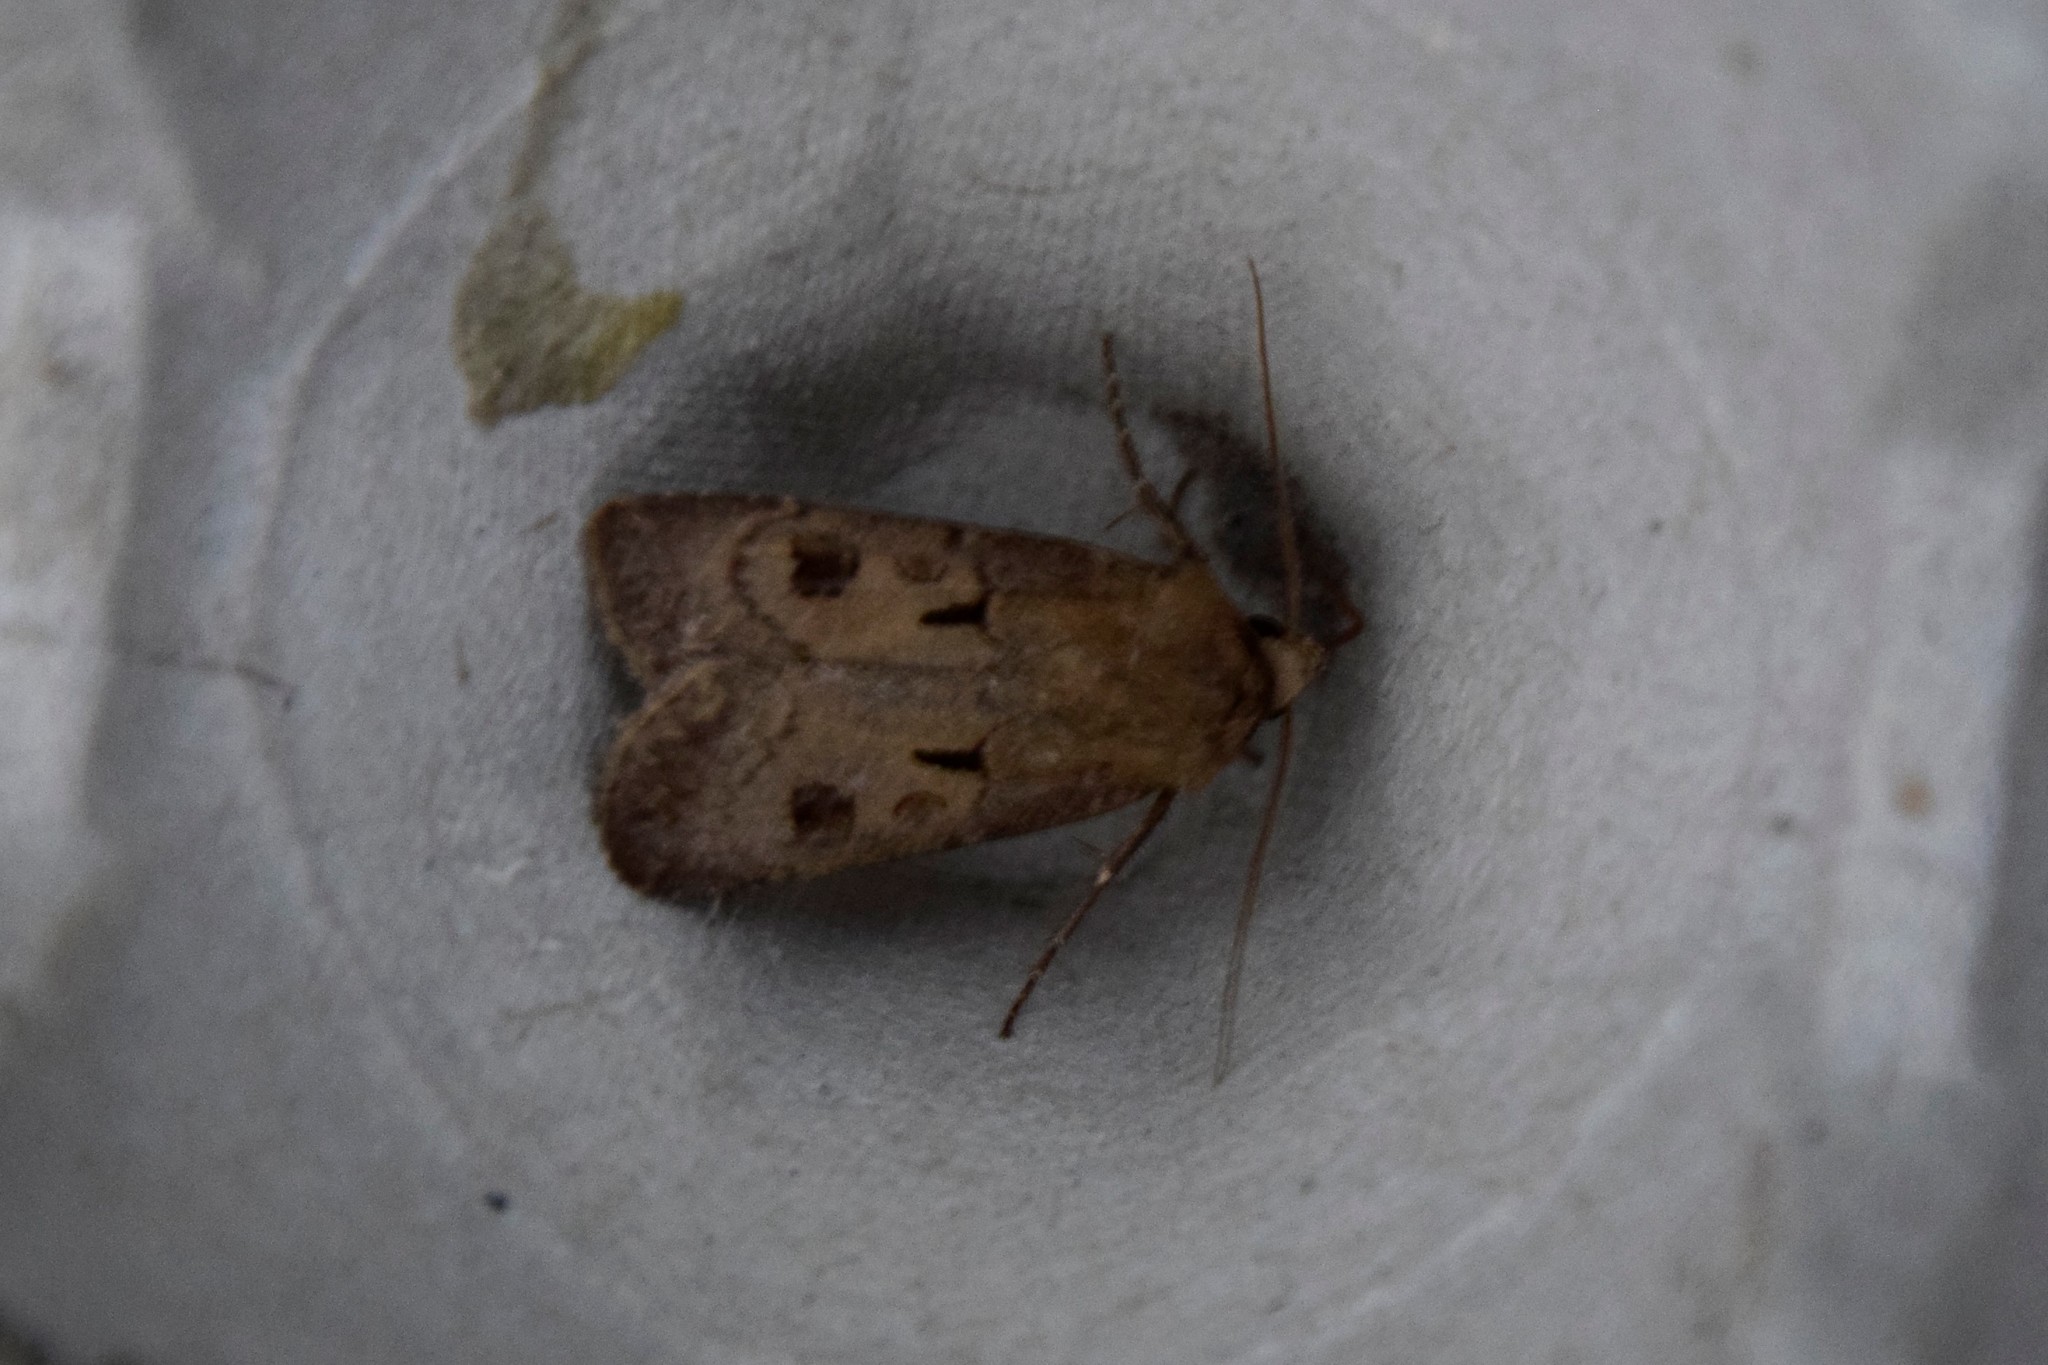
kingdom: Animalia
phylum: Arthropoda
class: Insecta
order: Lepidoptera
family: Noctuidae
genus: Agrotis
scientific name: Agrotis exclamationis
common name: Heart and dart
